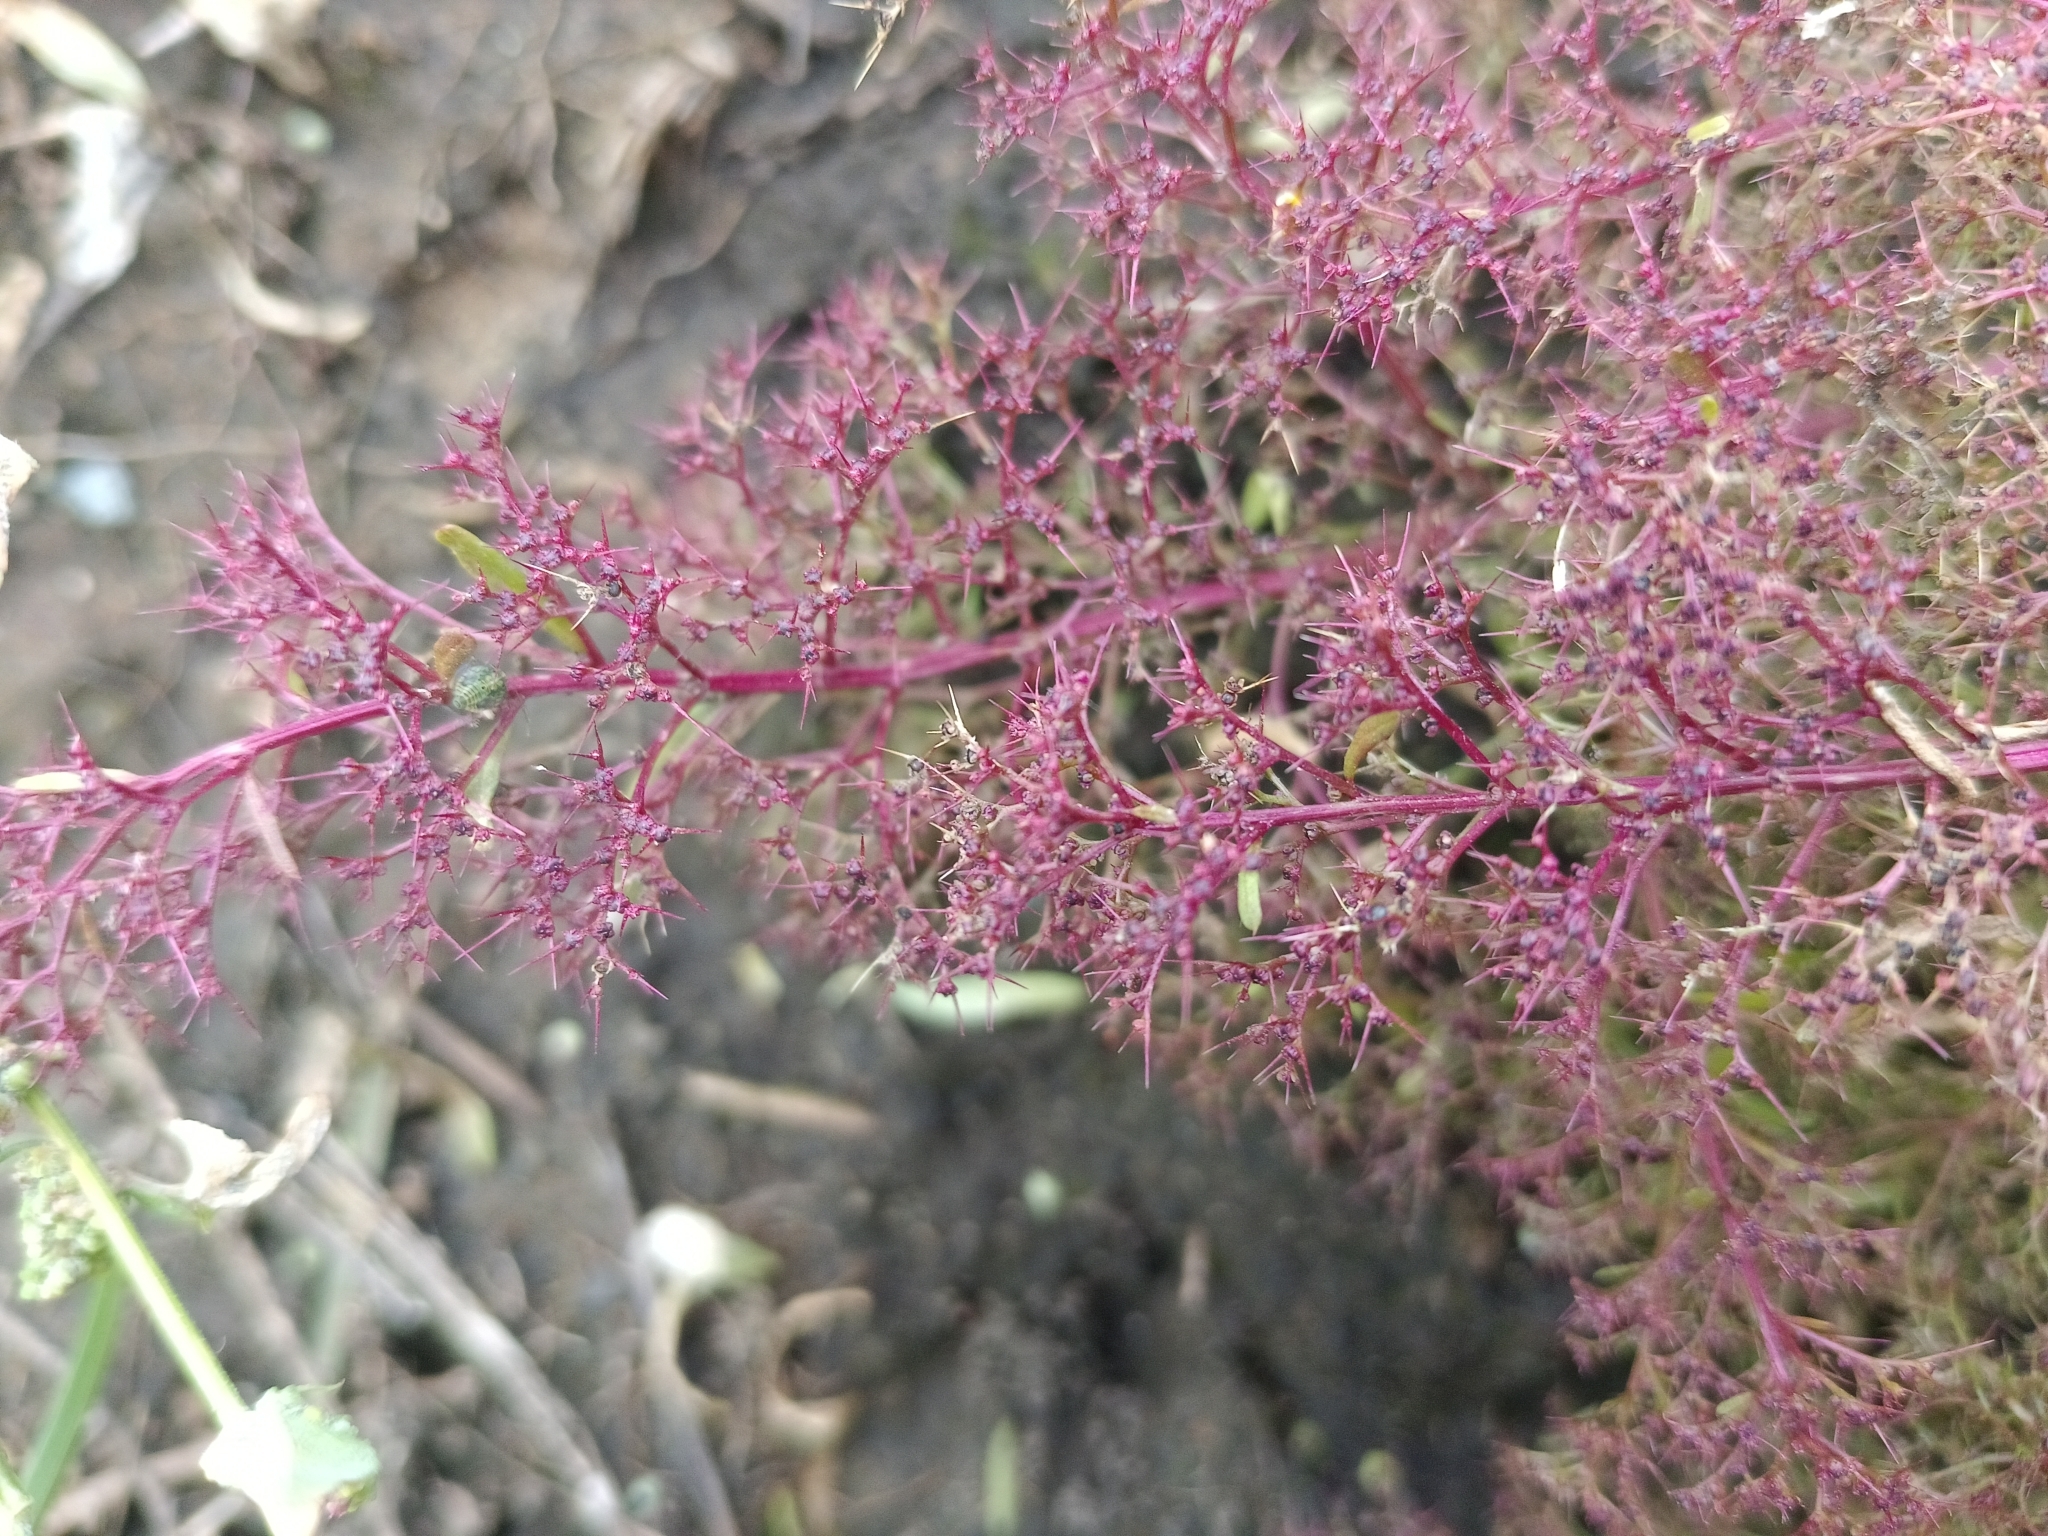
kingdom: Plantae
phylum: Tracheophyta
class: Magnoliopsida
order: Caryophyllales
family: Amaranthaceae
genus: Teloxys
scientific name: Teloxys aristata
